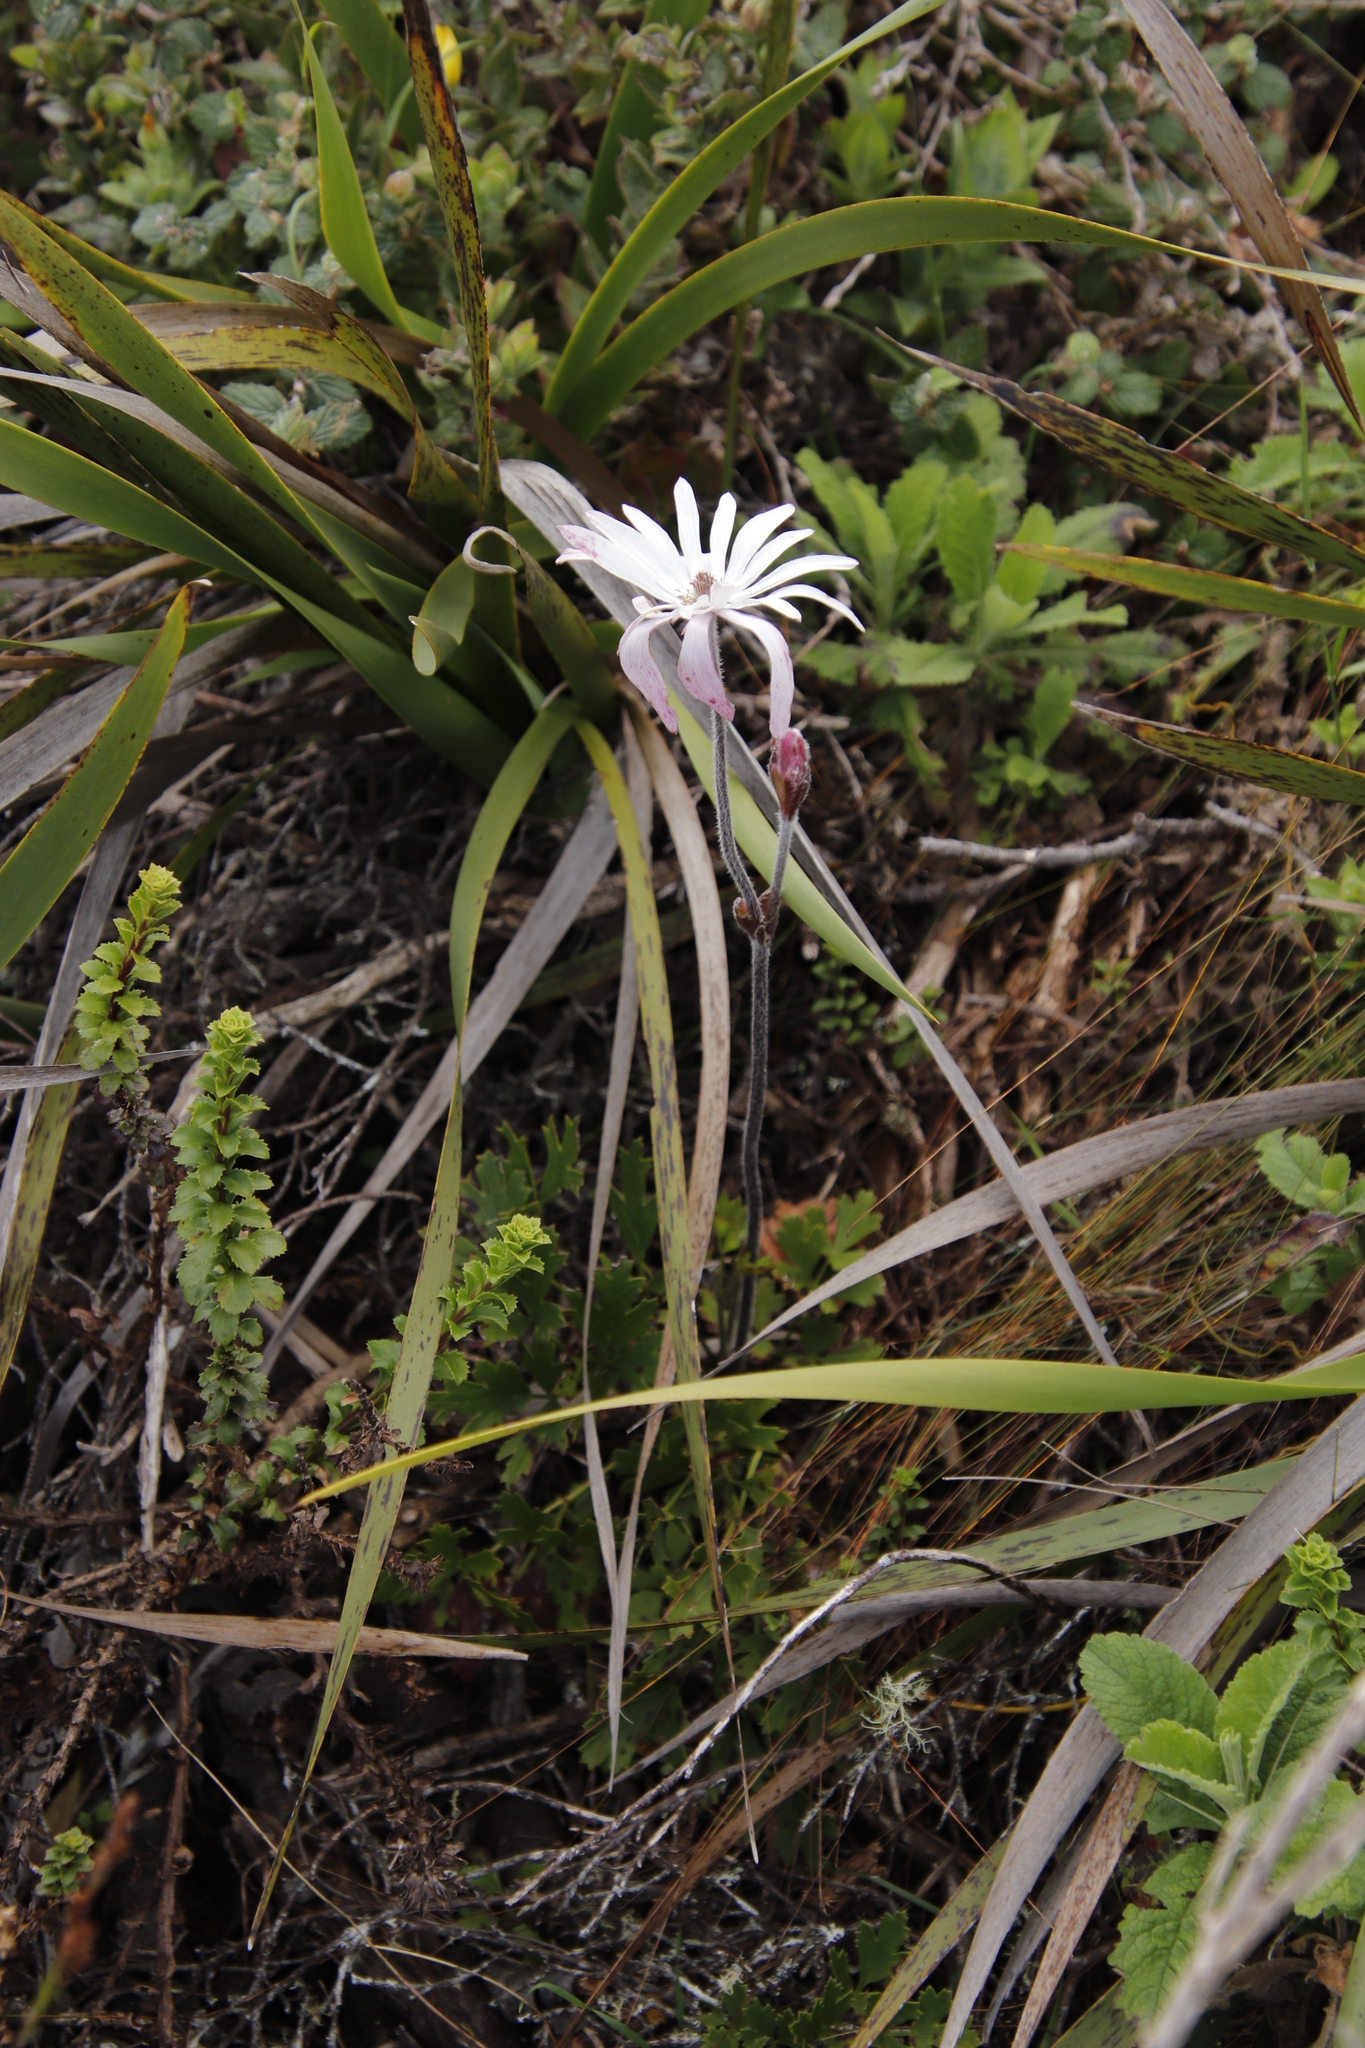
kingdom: Plantae
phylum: Tracheophyta
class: Magnoliopsida
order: Ranunculales
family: Ranunculaceae
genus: Knowltonia
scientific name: Knowltonia tenuifolia
